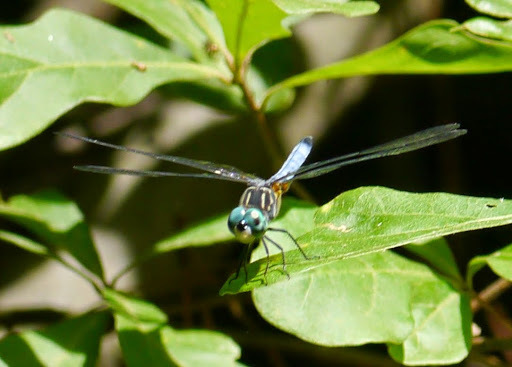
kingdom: Animalia
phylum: Arthropoda
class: Insecta
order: Odonata
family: Libellulidae
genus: Pachydiplax
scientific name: Pachydiplax longipennis
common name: Blue dasher
